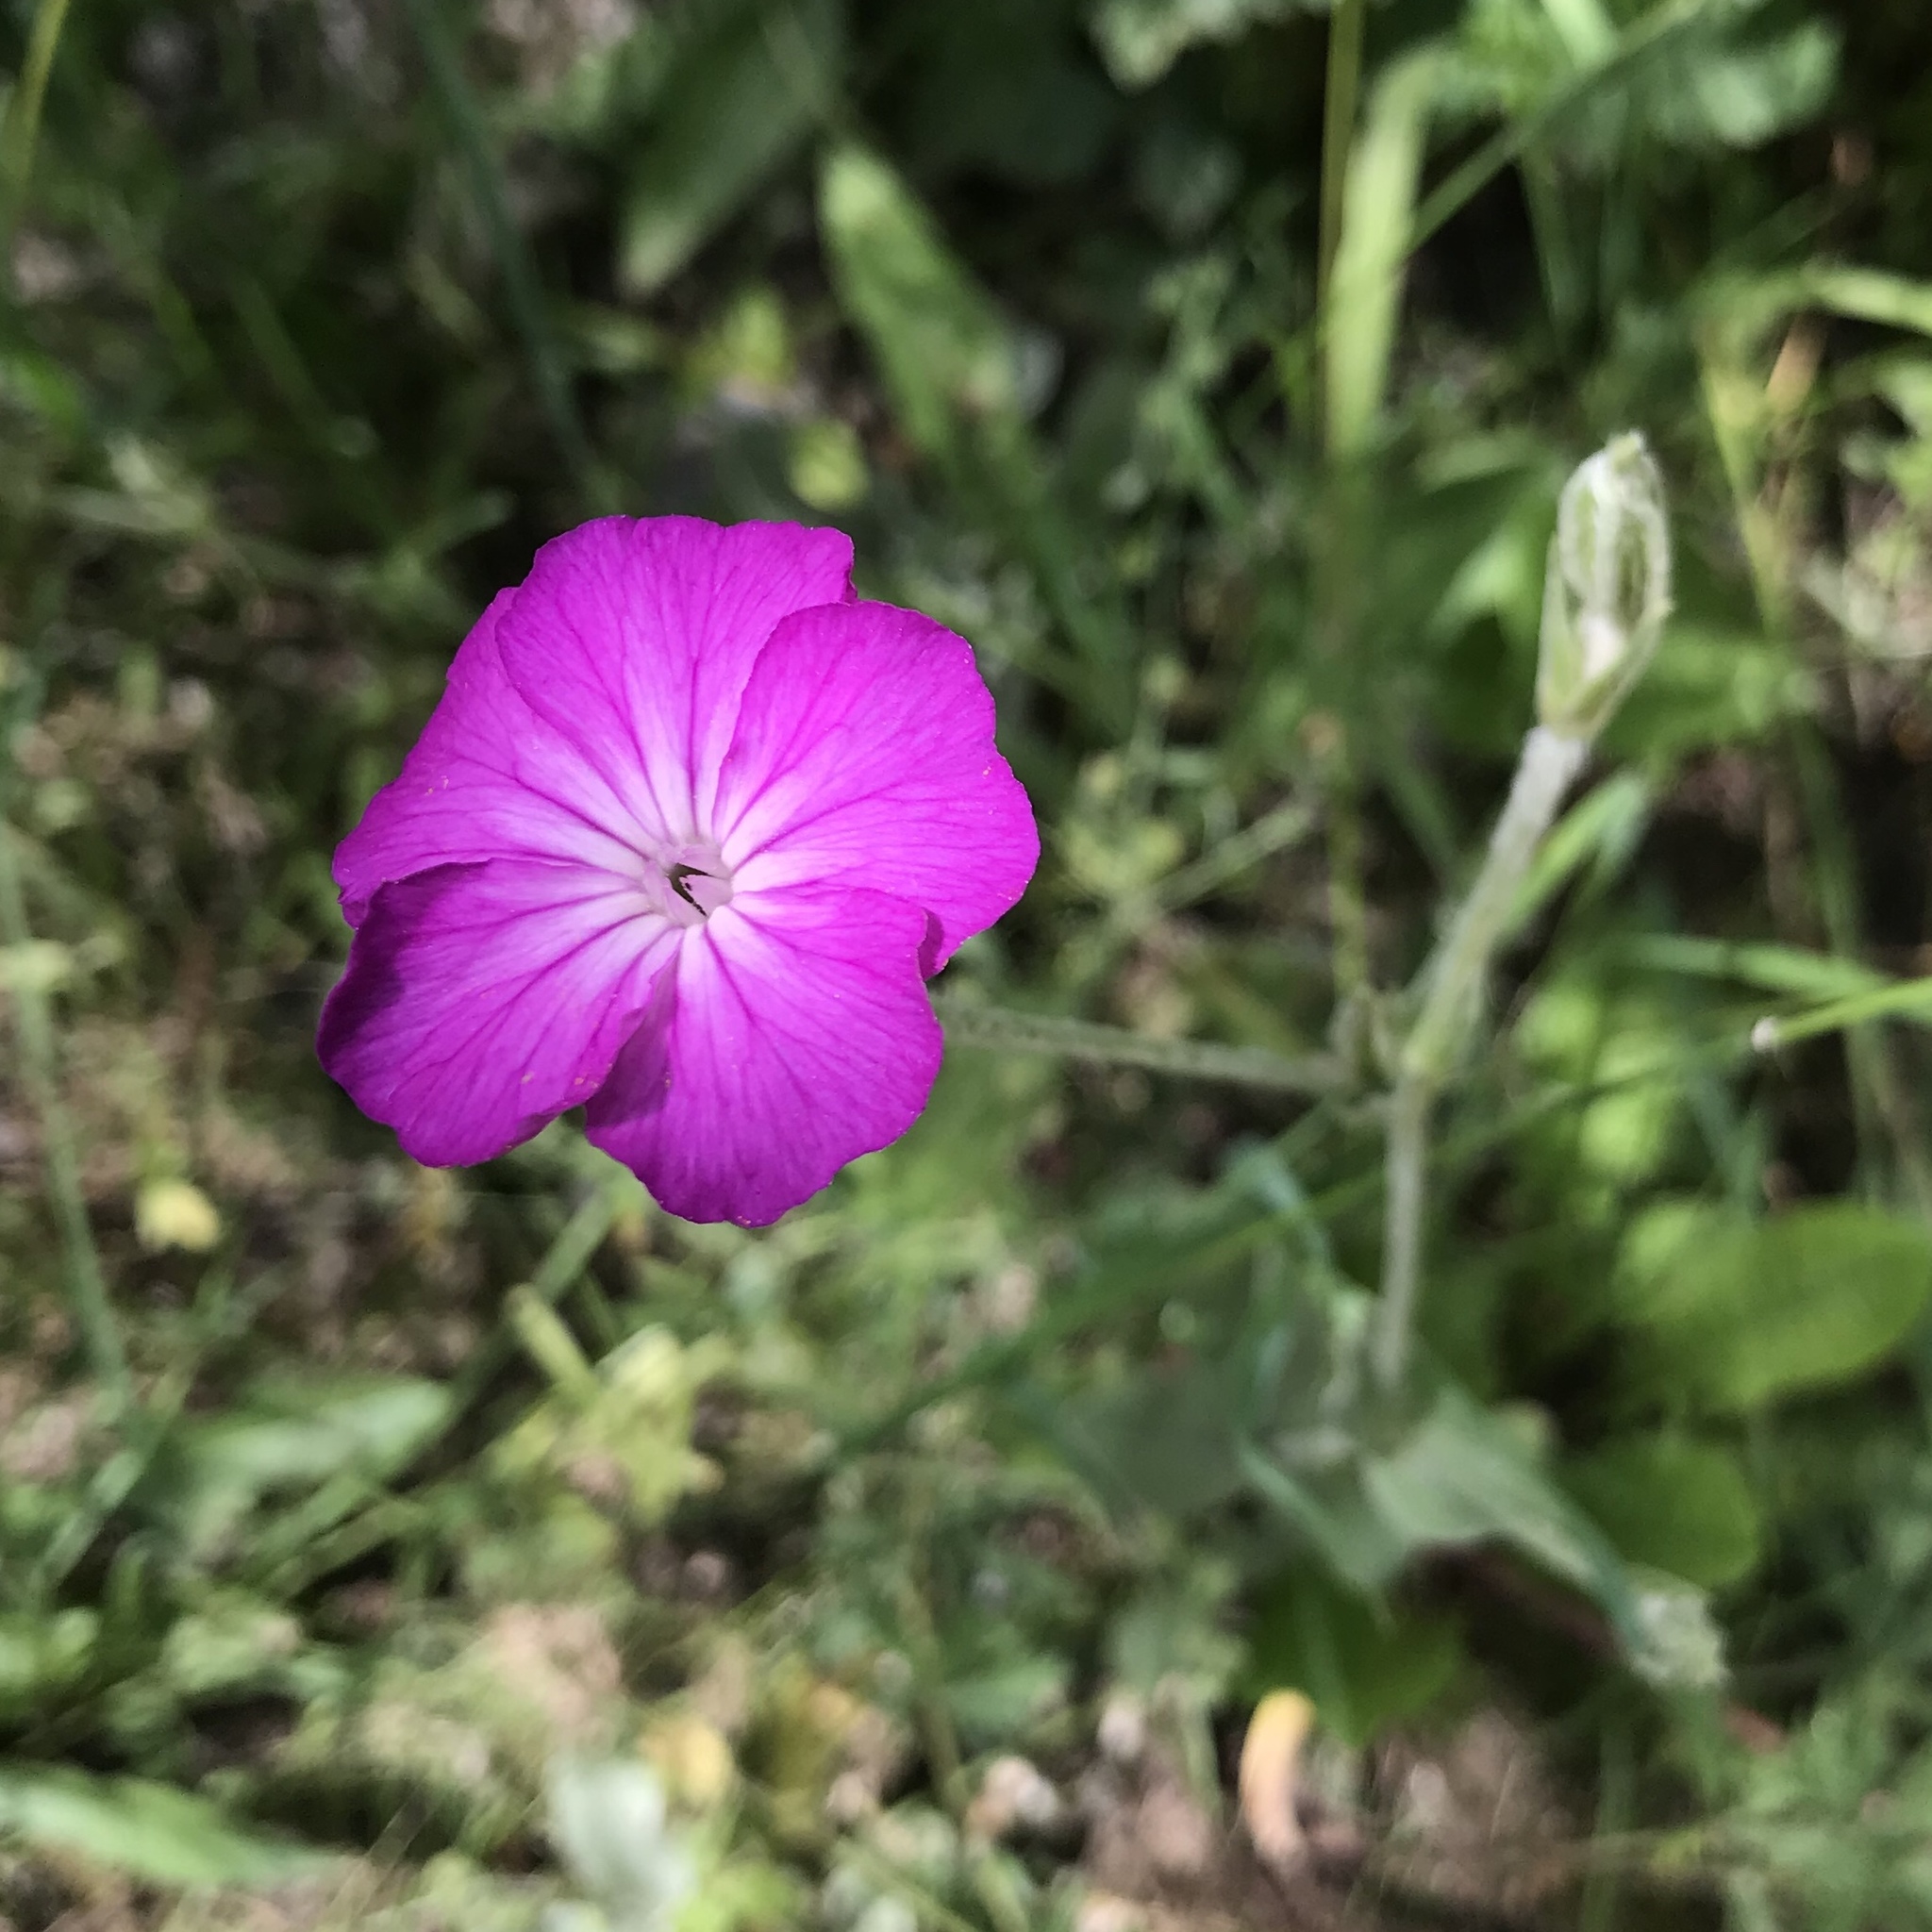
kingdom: Plantae
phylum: Tracheophyta
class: Magnoliopsida
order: Caryophyllales
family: Caryophyllaceae
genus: Silene
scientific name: Silene coronaria
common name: Rose campion
